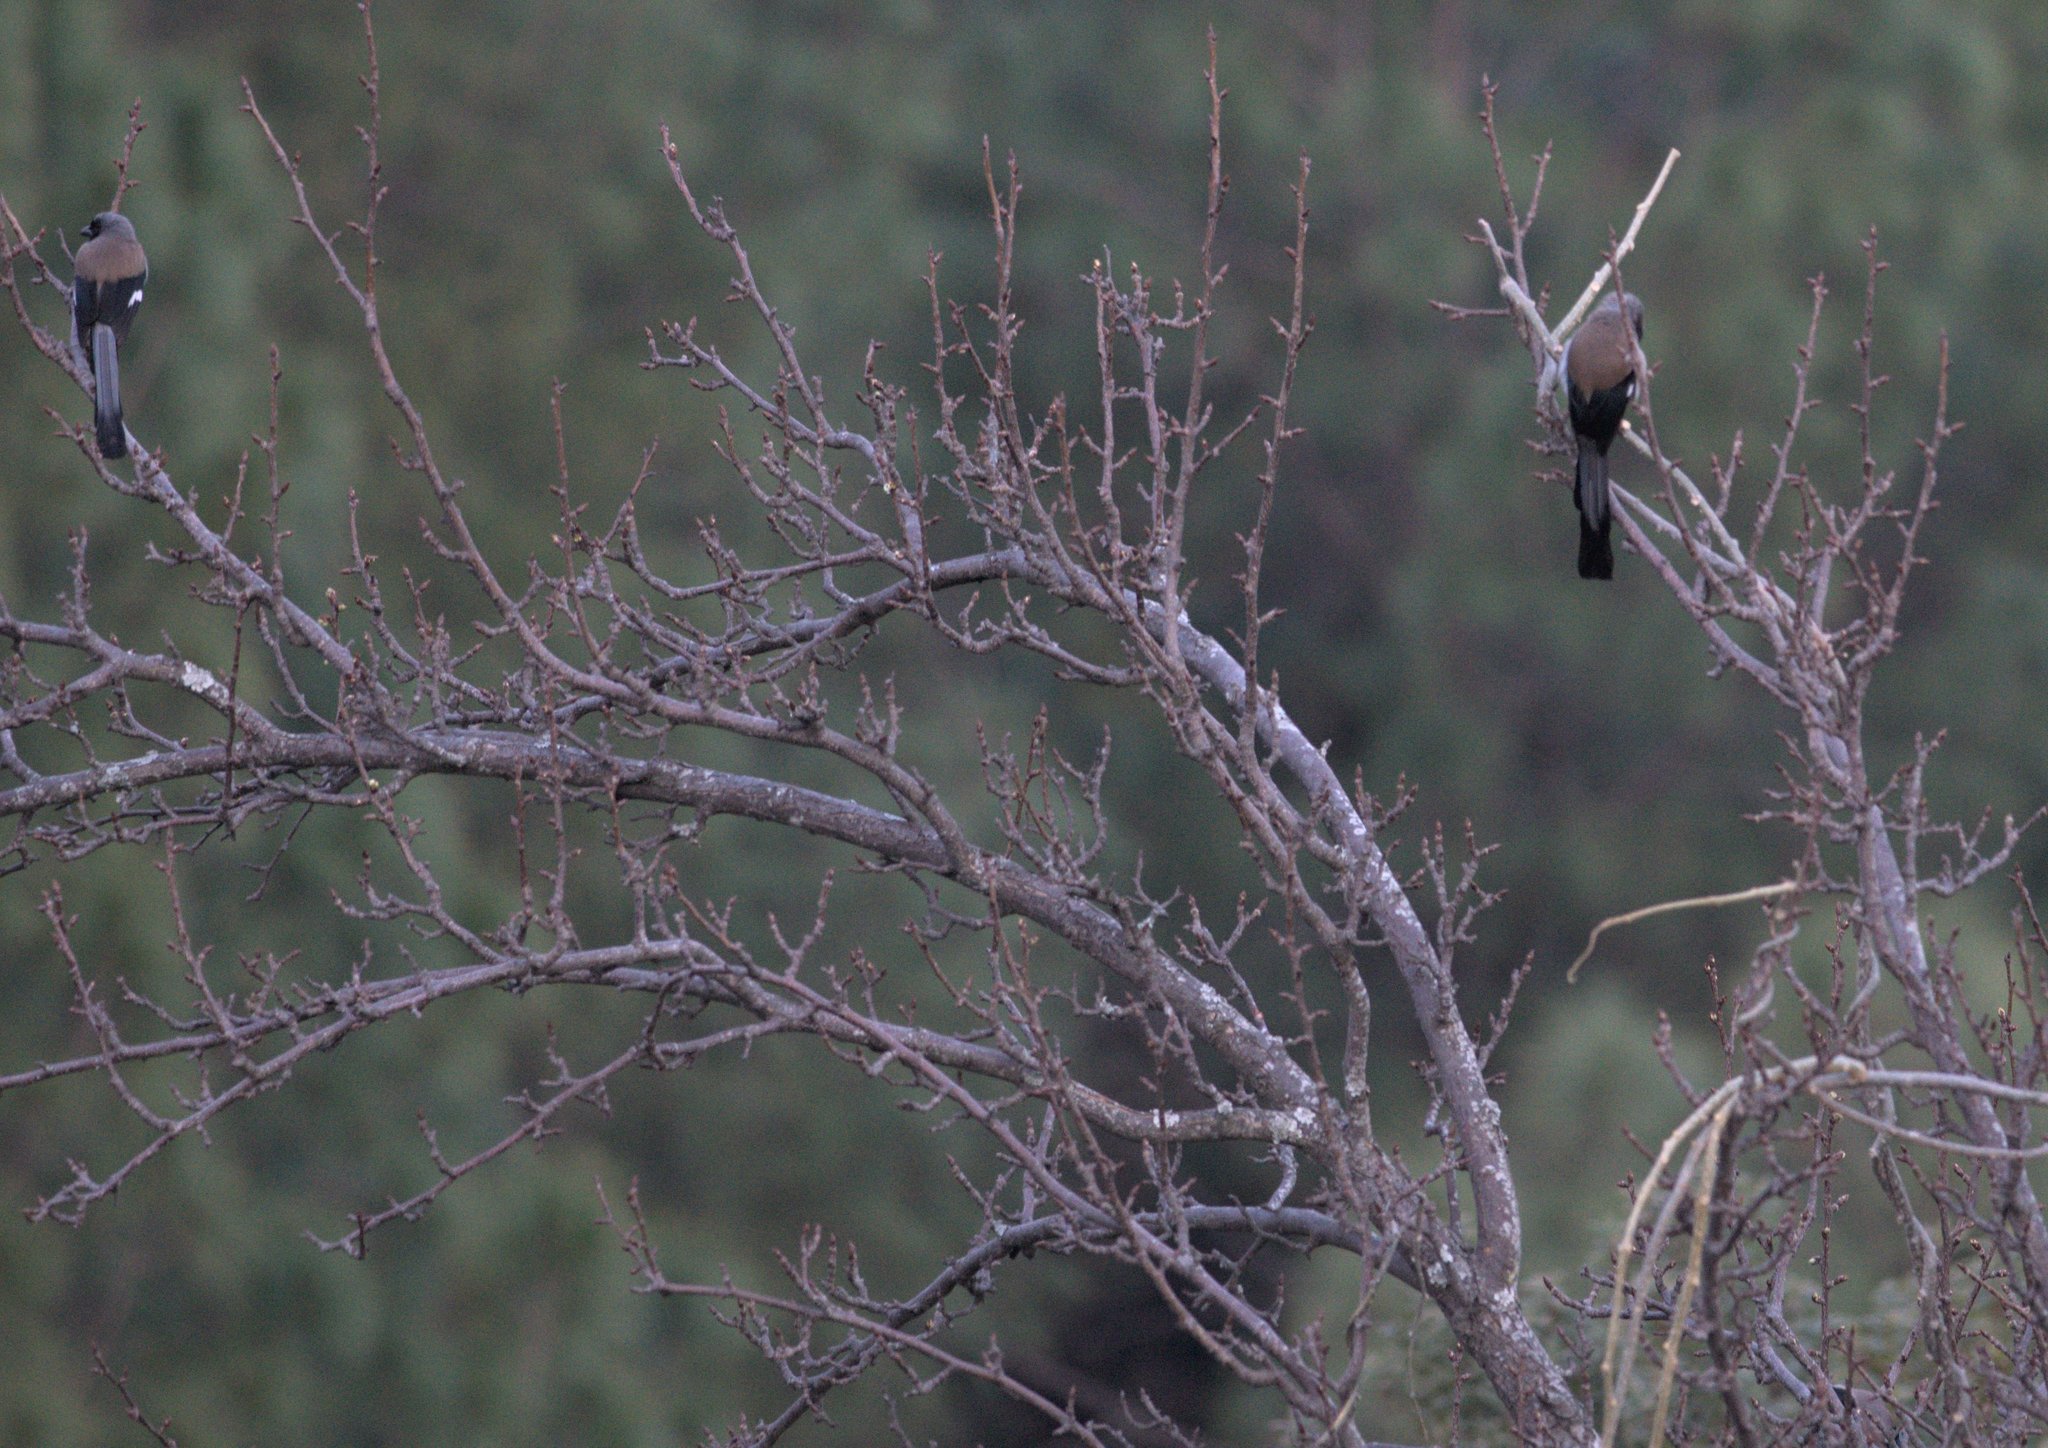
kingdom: Animalia
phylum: Chordata
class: Aves
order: Passeriformes
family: Corvidae
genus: Dendrocitta
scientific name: Dendrocitta formosae
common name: Grey treepie
